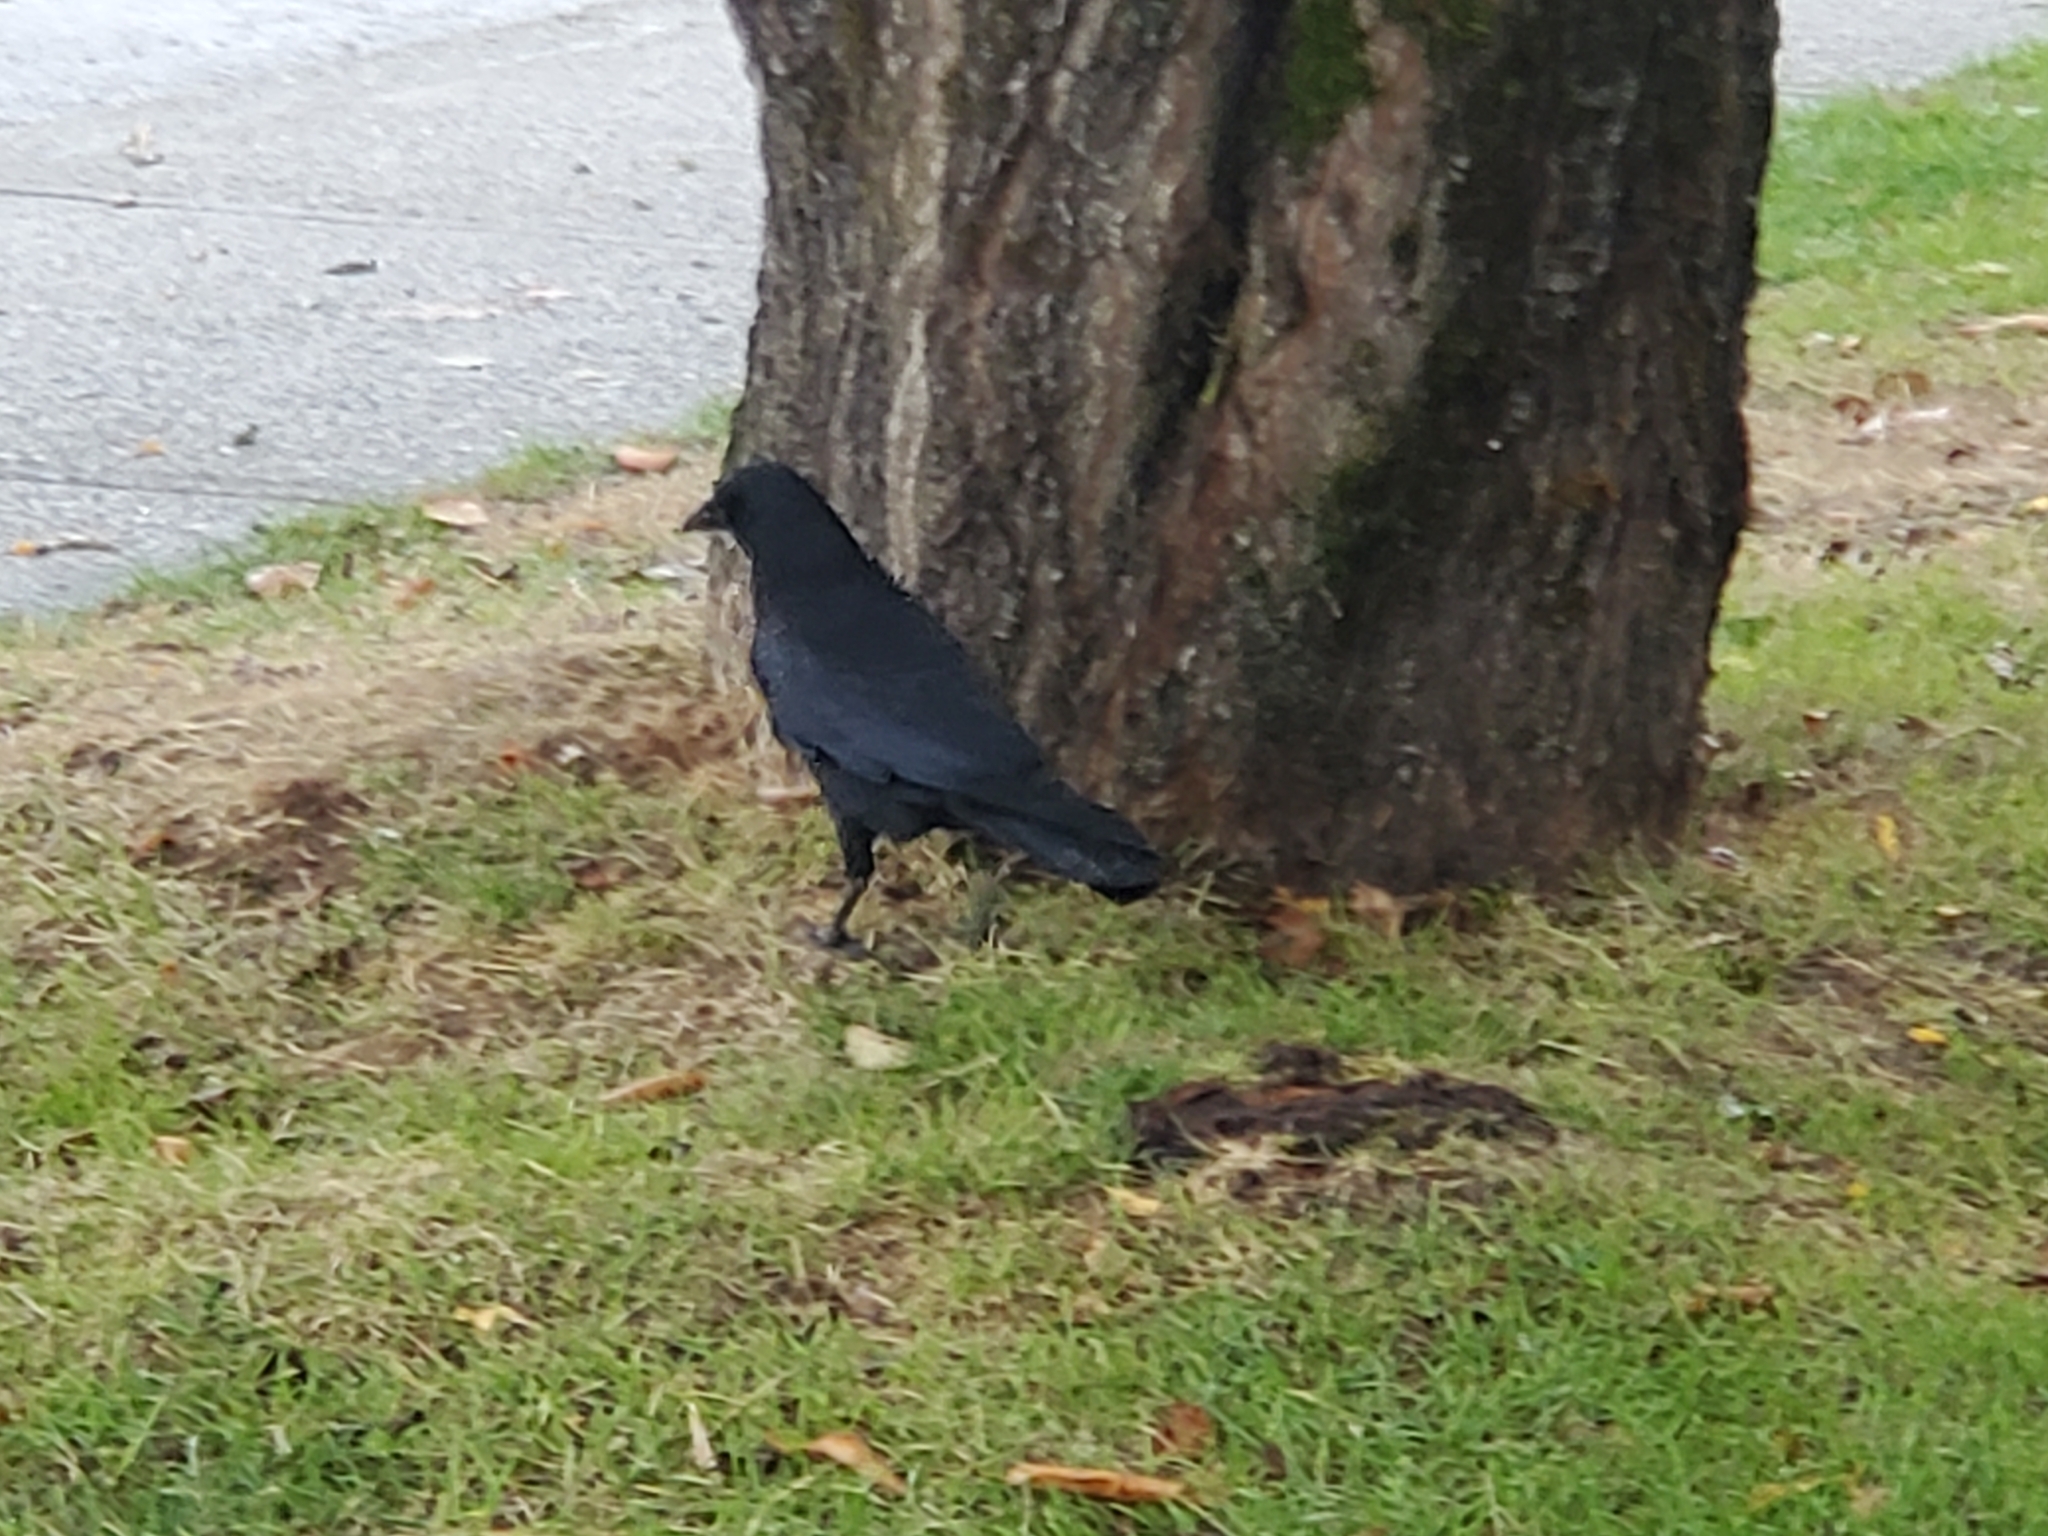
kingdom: Animalia
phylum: Chordata
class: Aves
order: Passeriformes
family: Corvidae
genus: Corvus
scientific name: Corvus brachyrhynchos
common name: American crow
